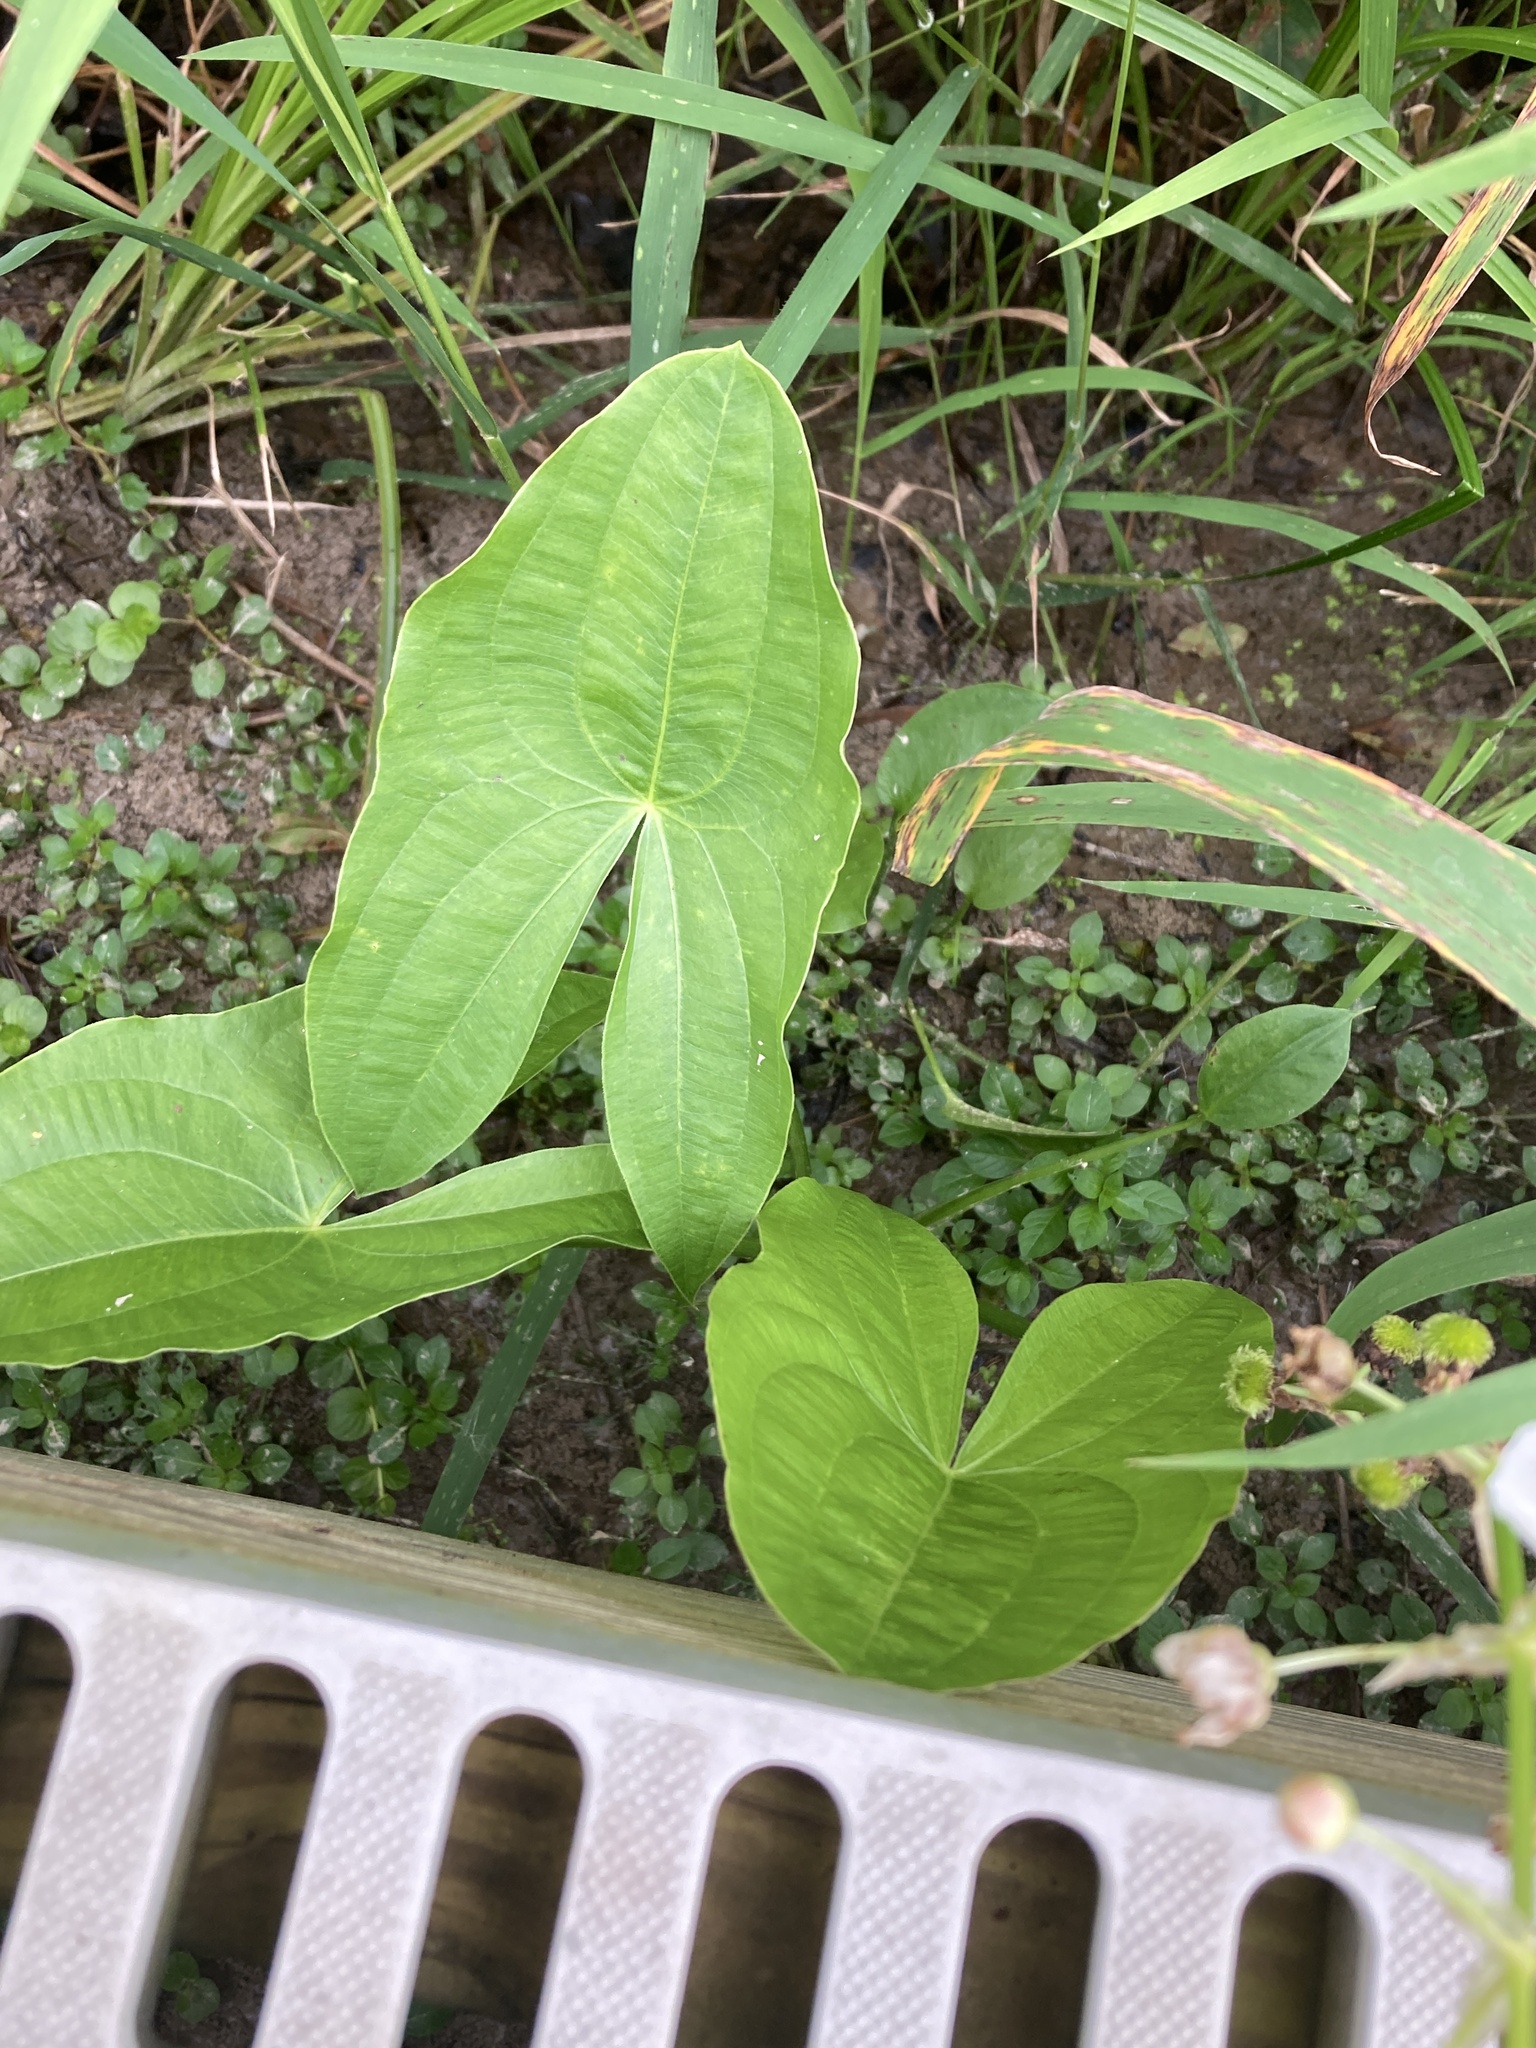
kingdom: Plantae
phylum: Tracheophyta
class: Liliopsida
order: Alismatales
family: Alismataceae
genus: Sagittaria
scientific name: Sagittaria brevirostra
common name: Midwestern arrowhead
